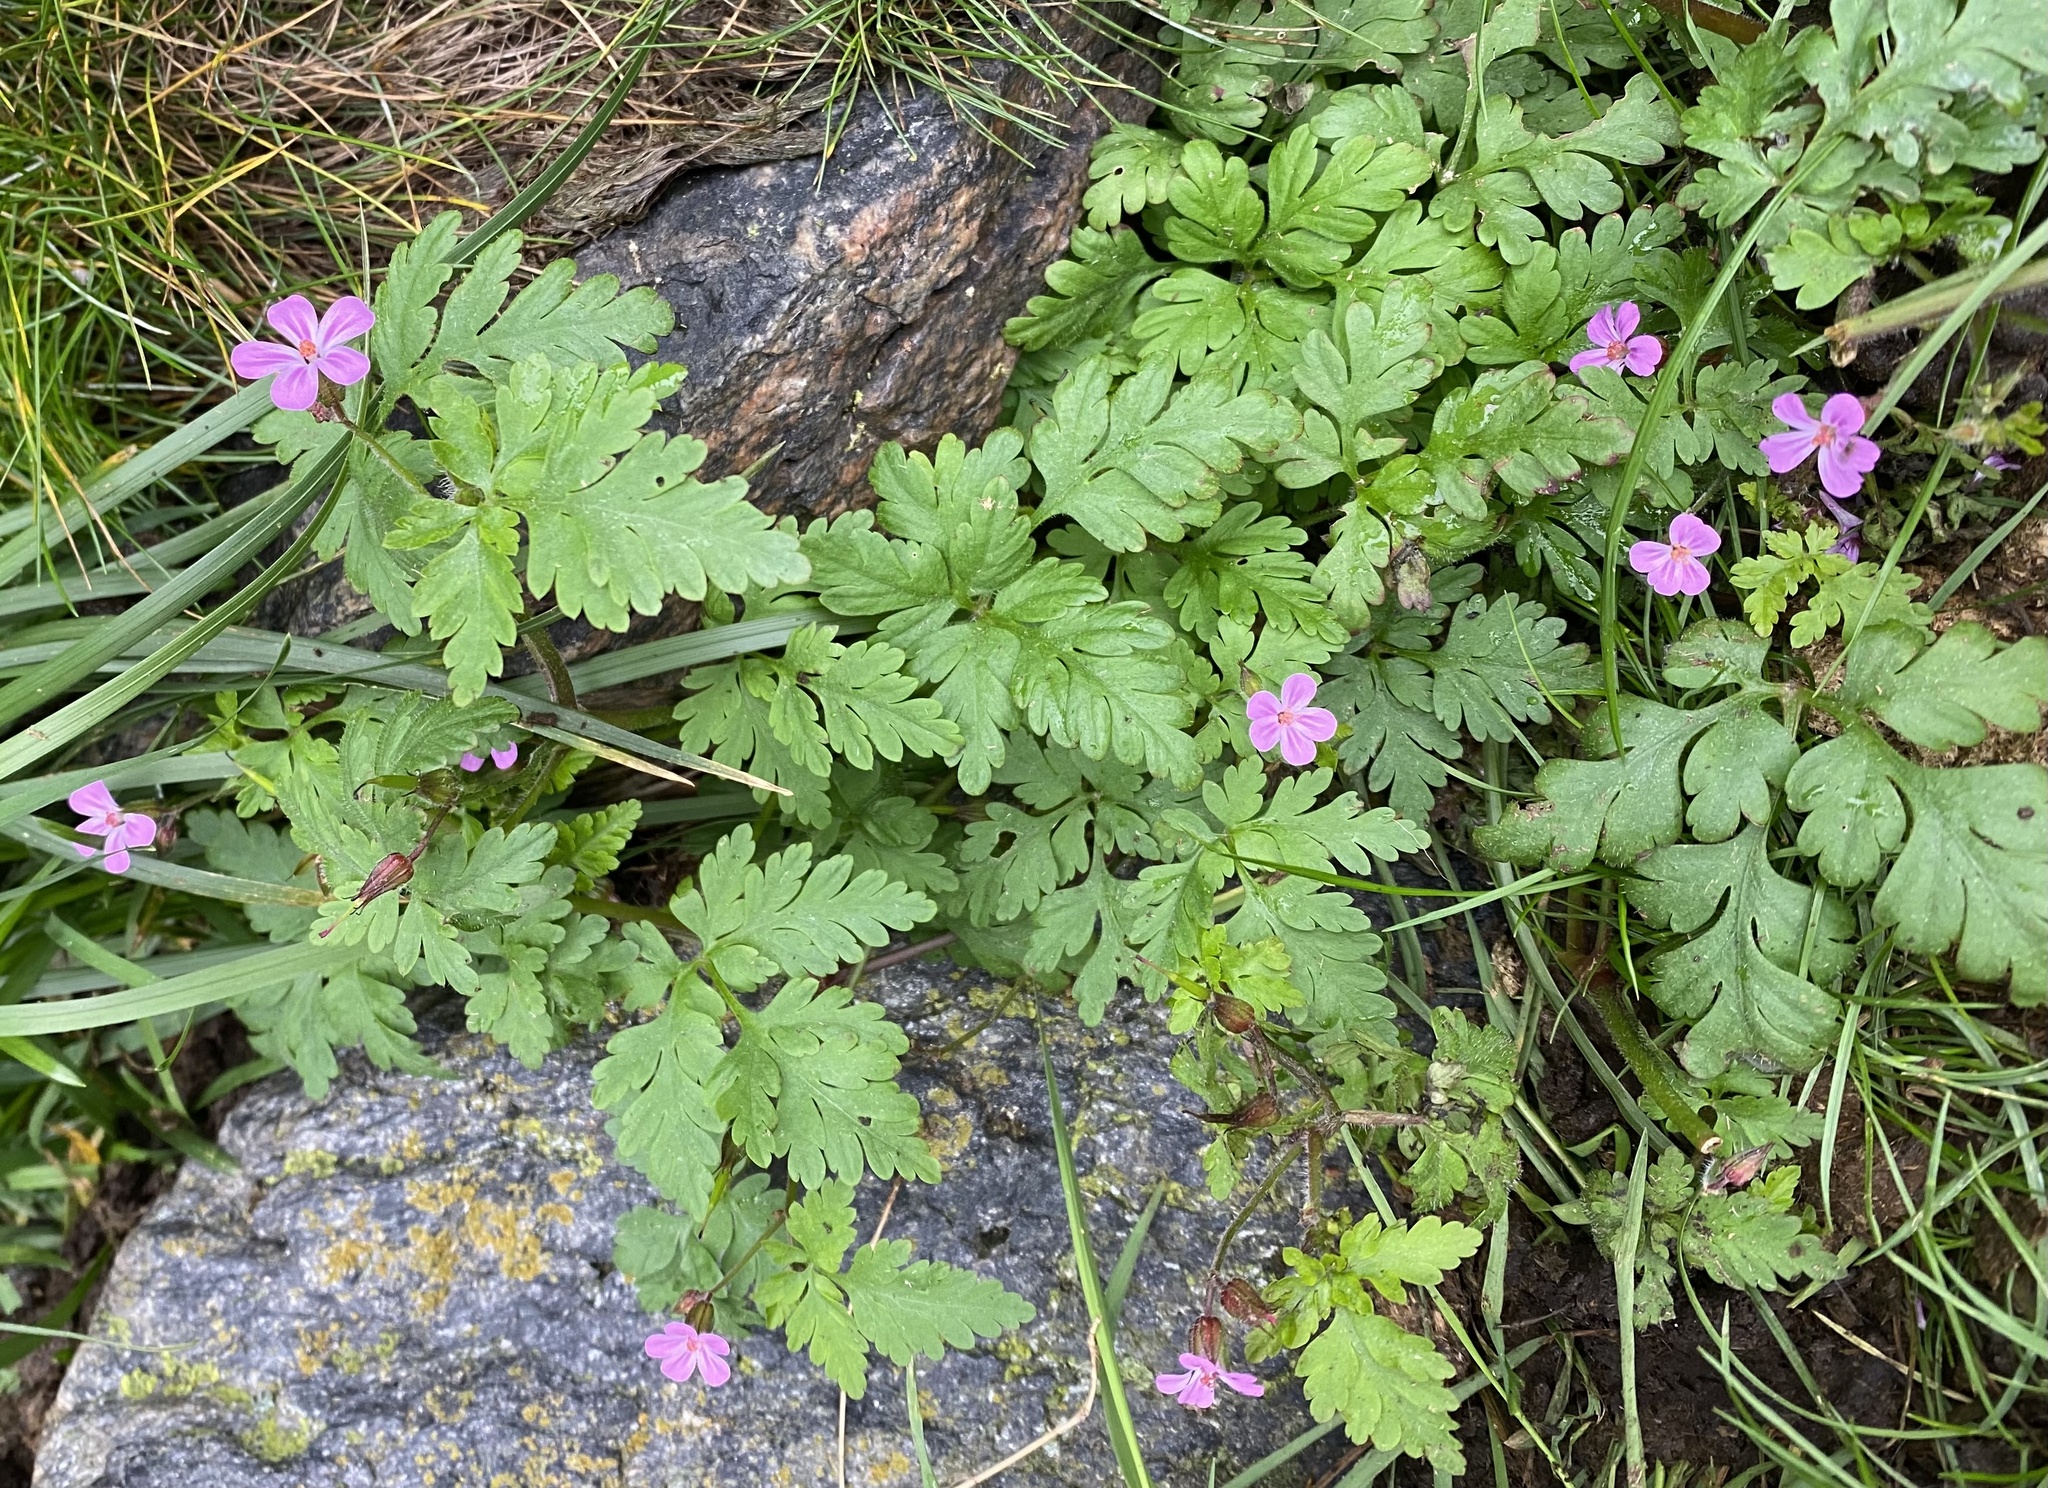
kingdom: Plantae
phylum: Tracheophyta
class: Magnoliopsida
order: Geraniales
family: Geraniaceae
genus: Geranium
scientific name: Geranium robertianum
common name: Herb-robert
